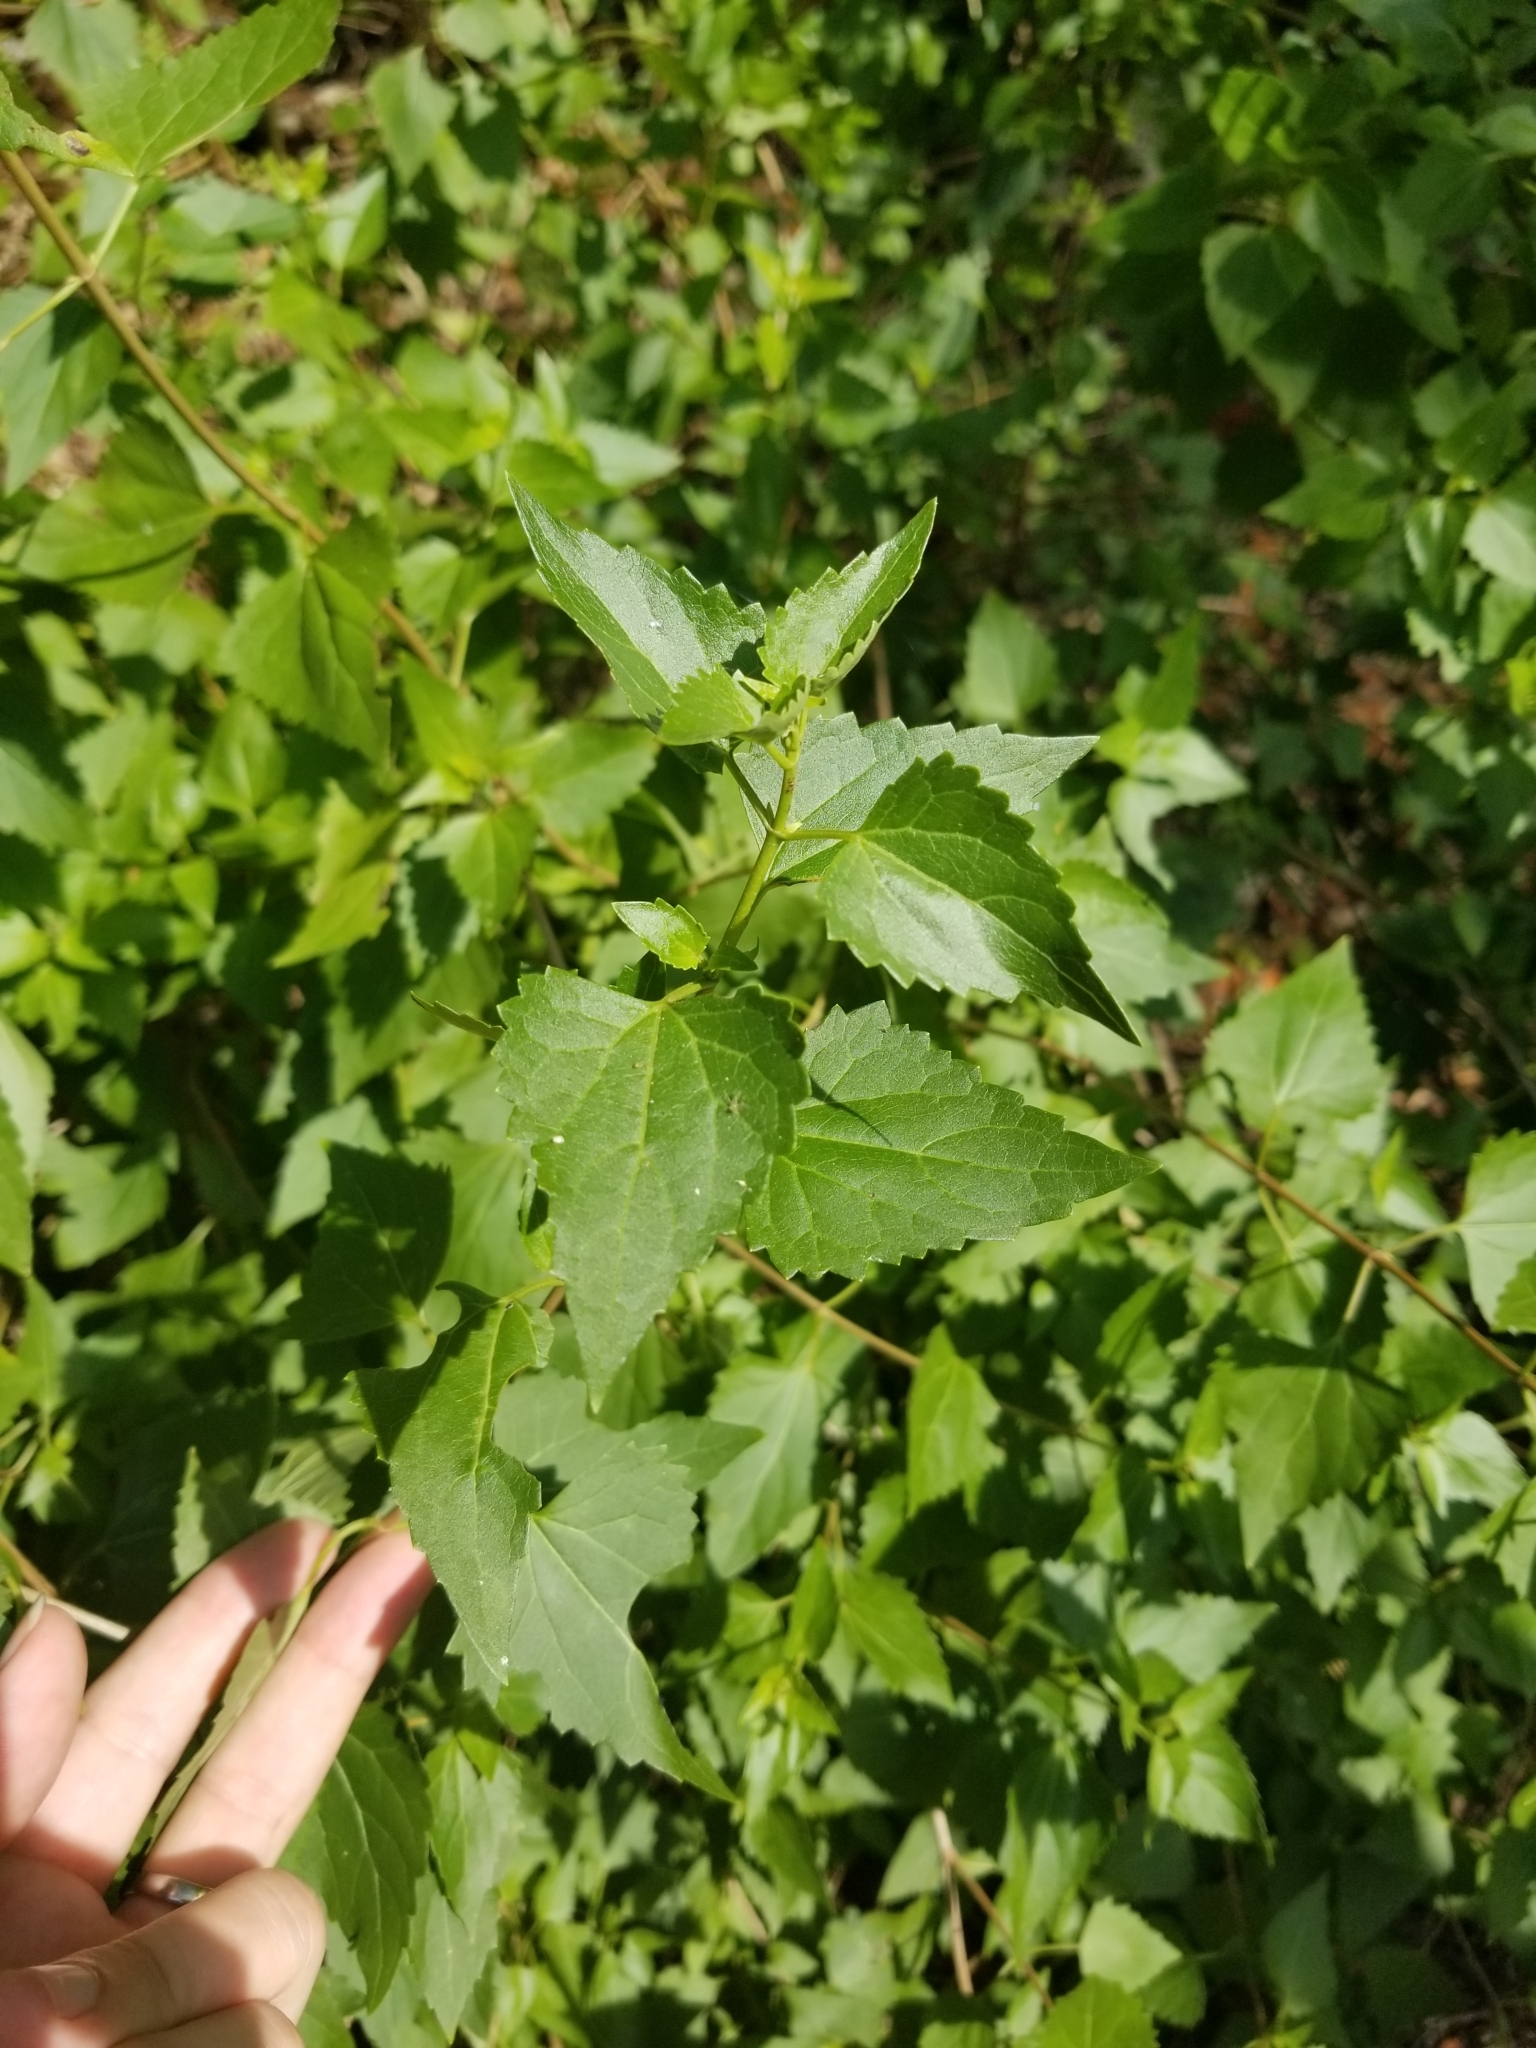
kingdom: Plantae
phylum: Tracheophyta
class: Magnoliopsida
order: Asterales
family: Asteraceae
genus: Ageratina
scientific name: Ageratina havanensis
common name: Havana snakeroot
